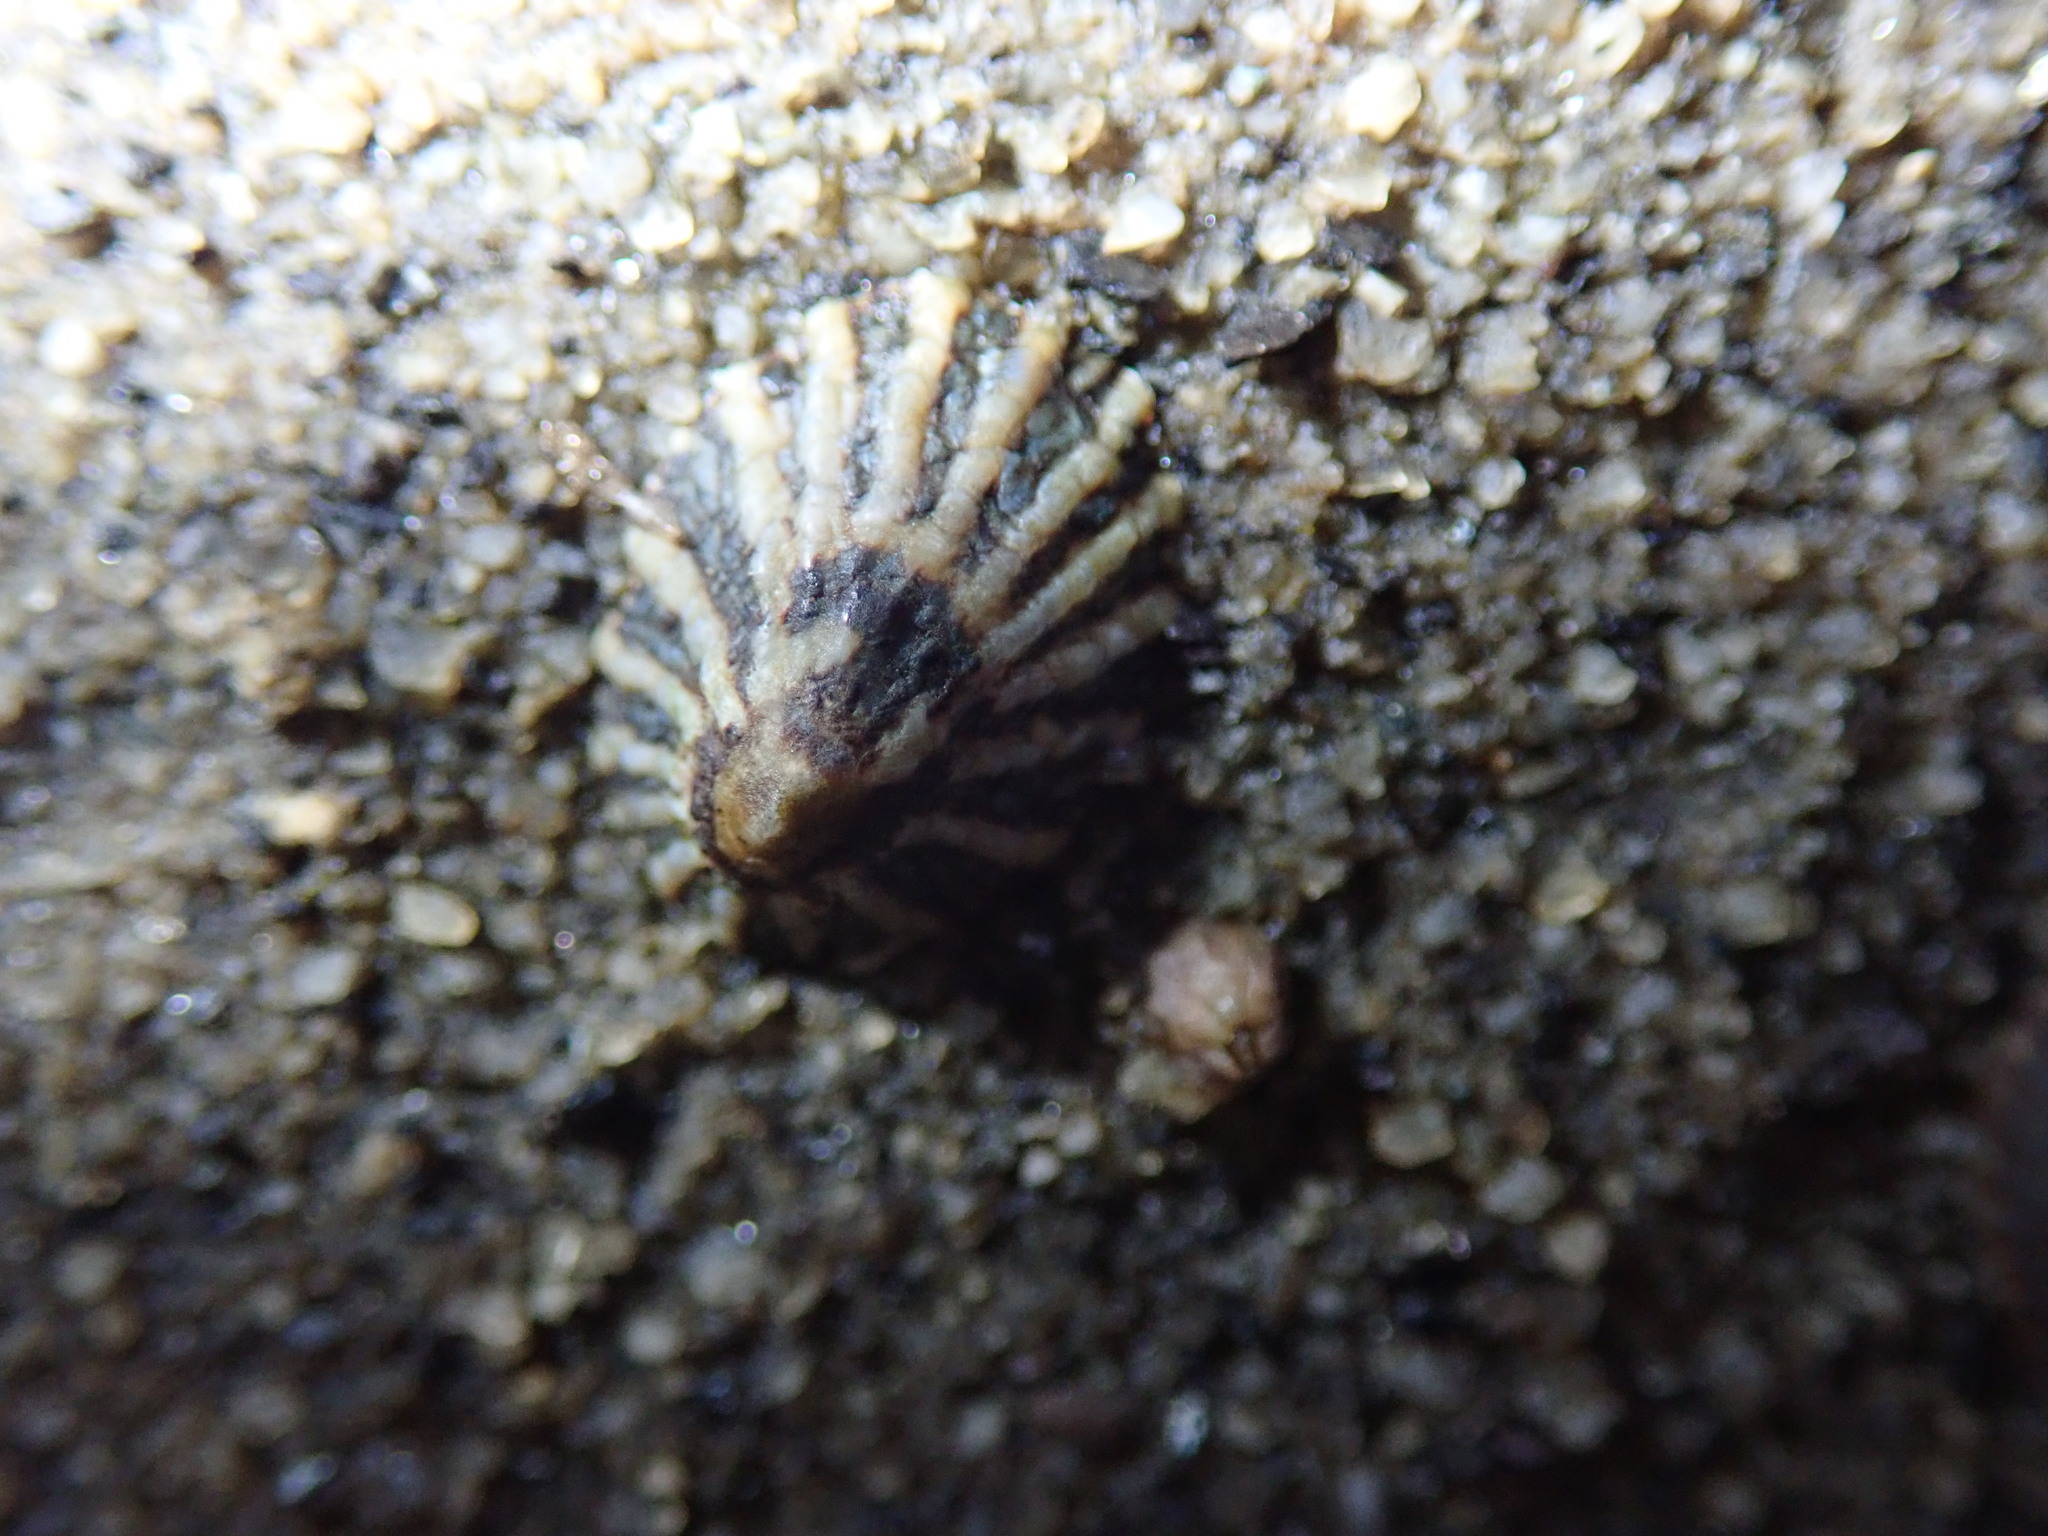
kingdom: Animalia
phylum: Mollusca
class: Gastropoda
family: Lottiidae
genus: Lottia
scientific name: Lottia scabra
